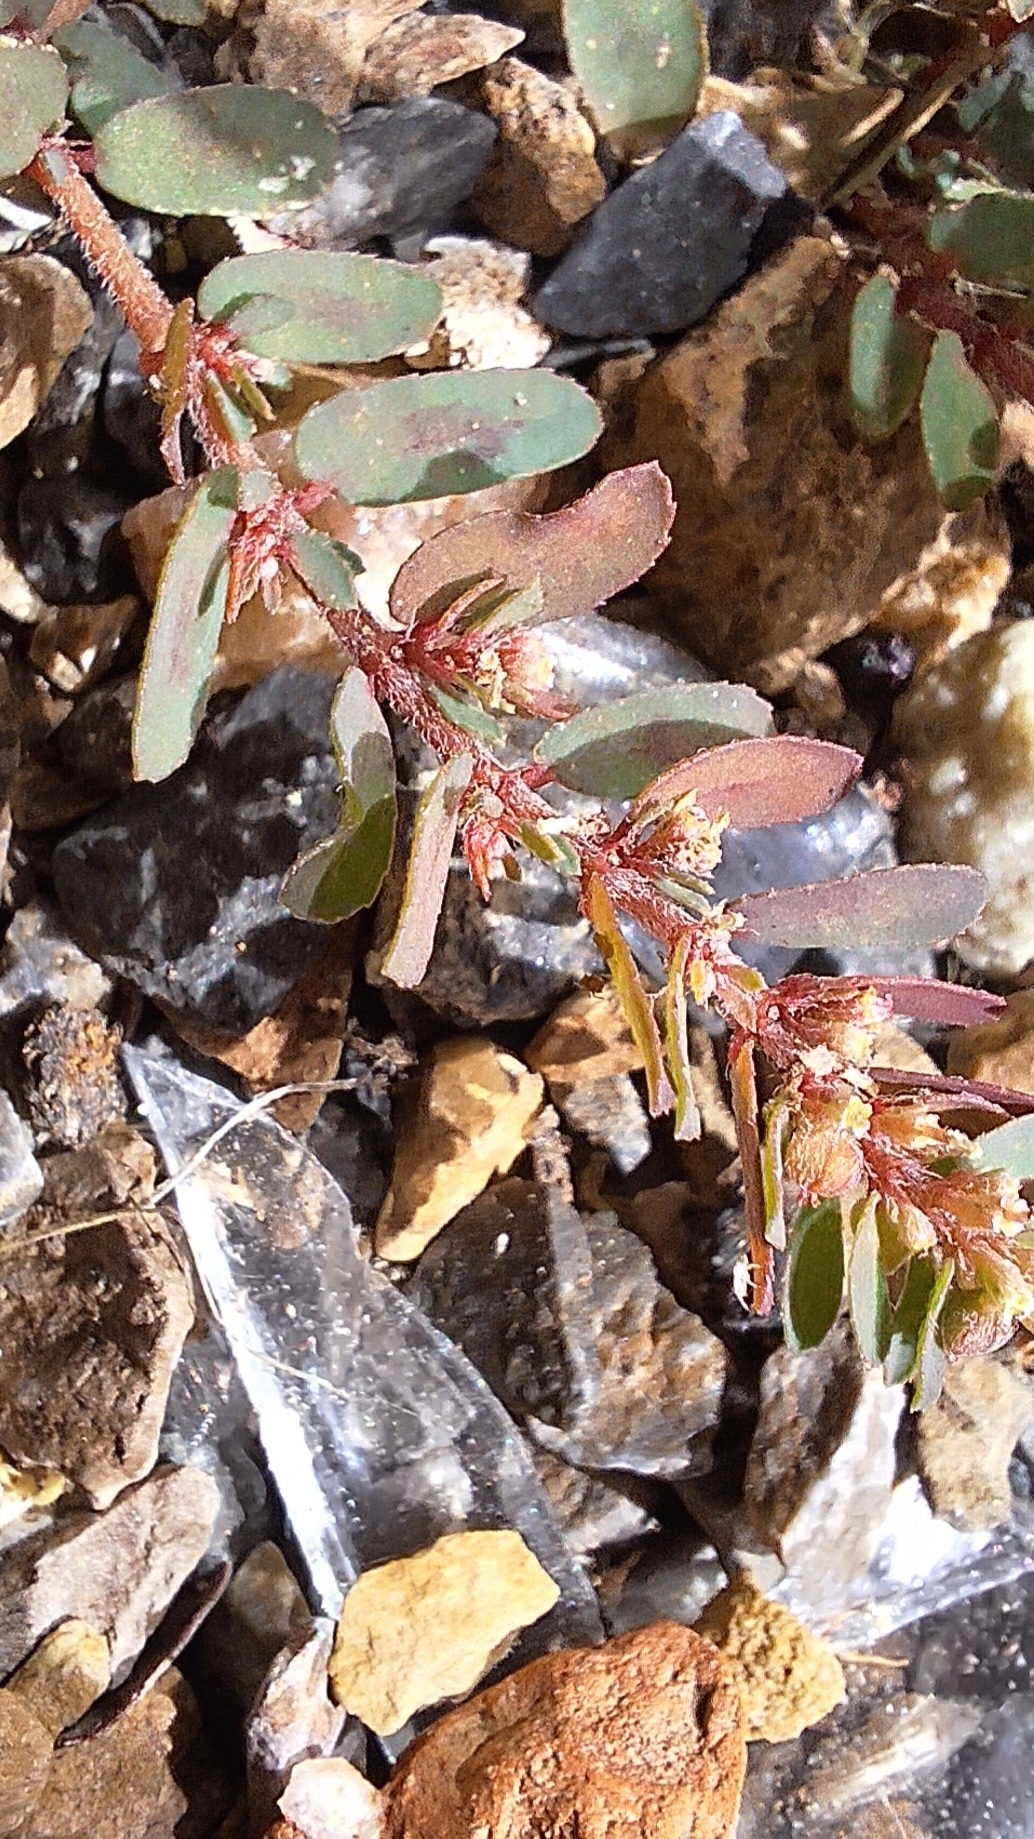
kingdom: Plantae
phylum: Tracheophyta
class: Magnoliopsida
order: Malpighiales
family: Euphorbiaceae
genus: Euphorbia
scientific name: Euphorbia maculata
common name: Spotted spurge
